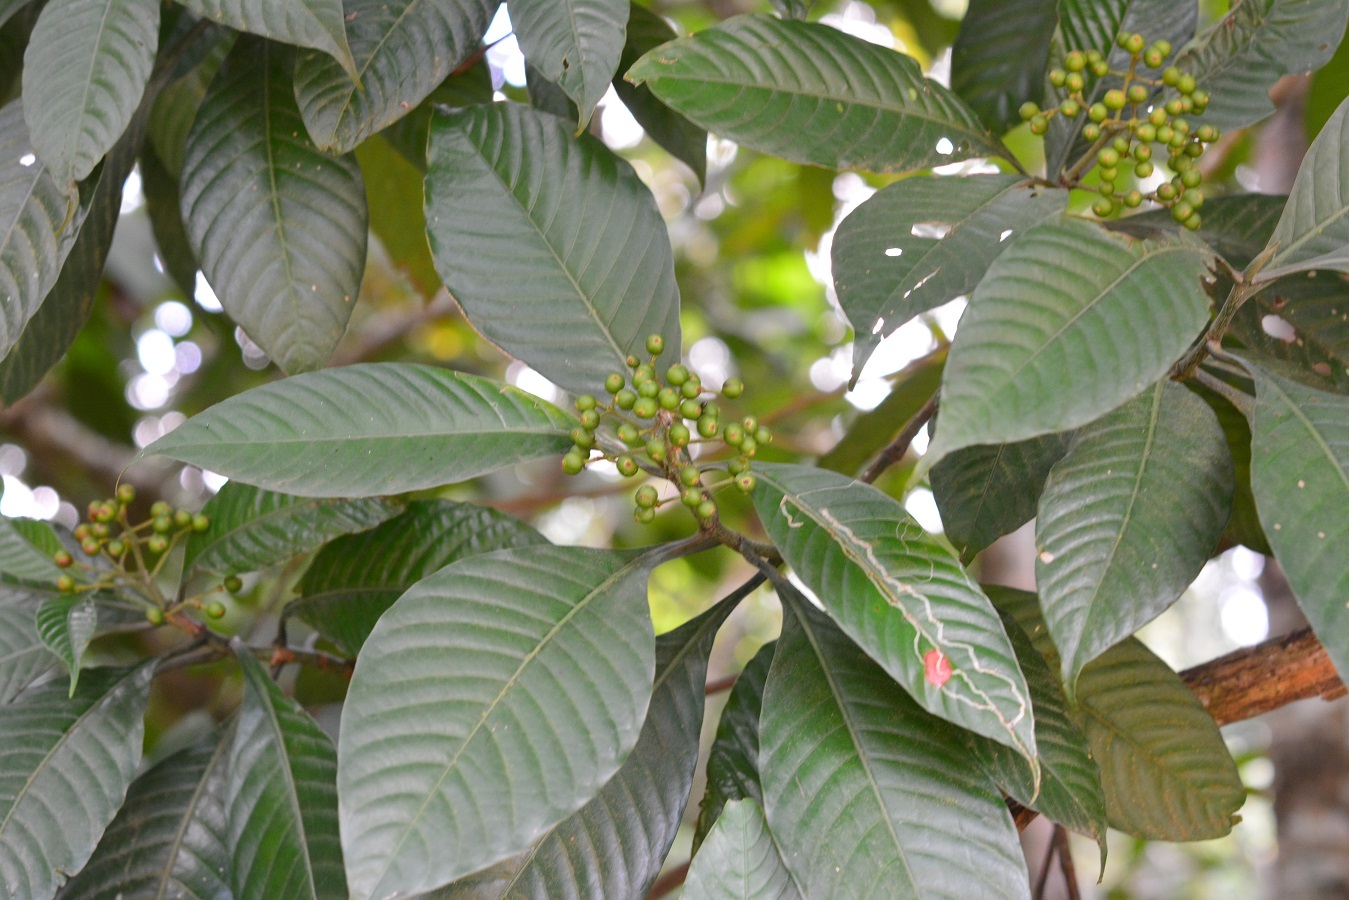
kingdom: Plantae
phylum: Tracheophyta
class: Magnoliopsida
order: Gentianales
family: Rubiaceae
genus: Psychotria
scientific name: Psychotria mexiae
